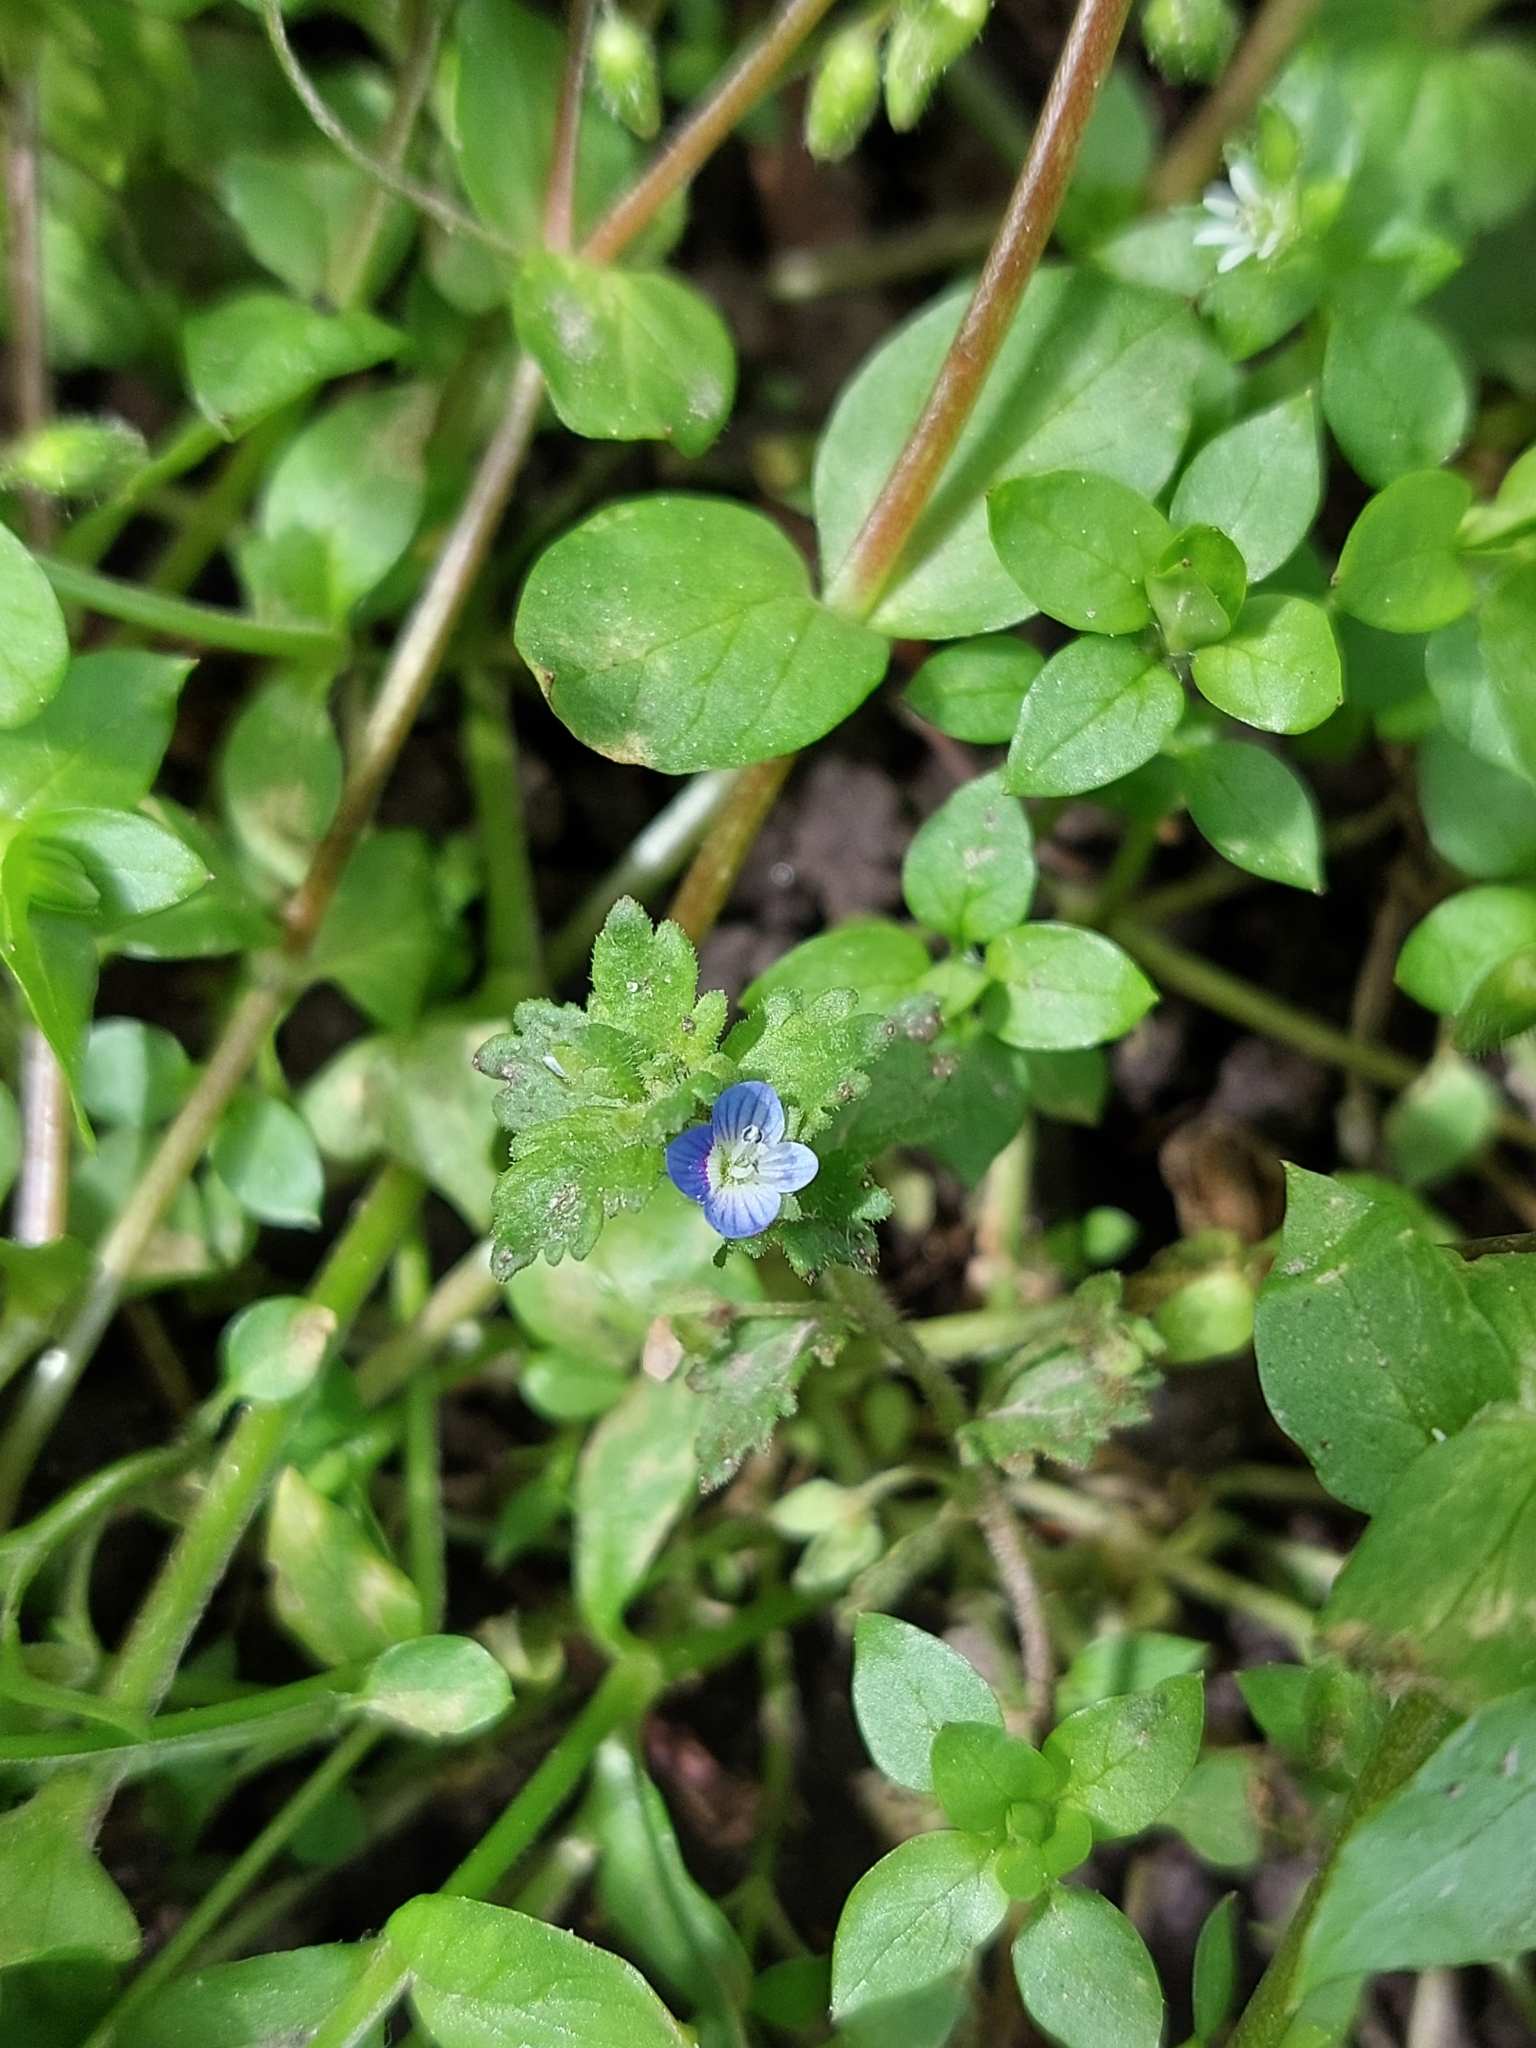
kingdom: Plantae
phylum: Tracheophyta
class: Magnoliopsida
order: Lamiales
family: Plantaginaceae
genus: Veronica
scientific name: Veronica polita
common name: Grey field-speedwell
